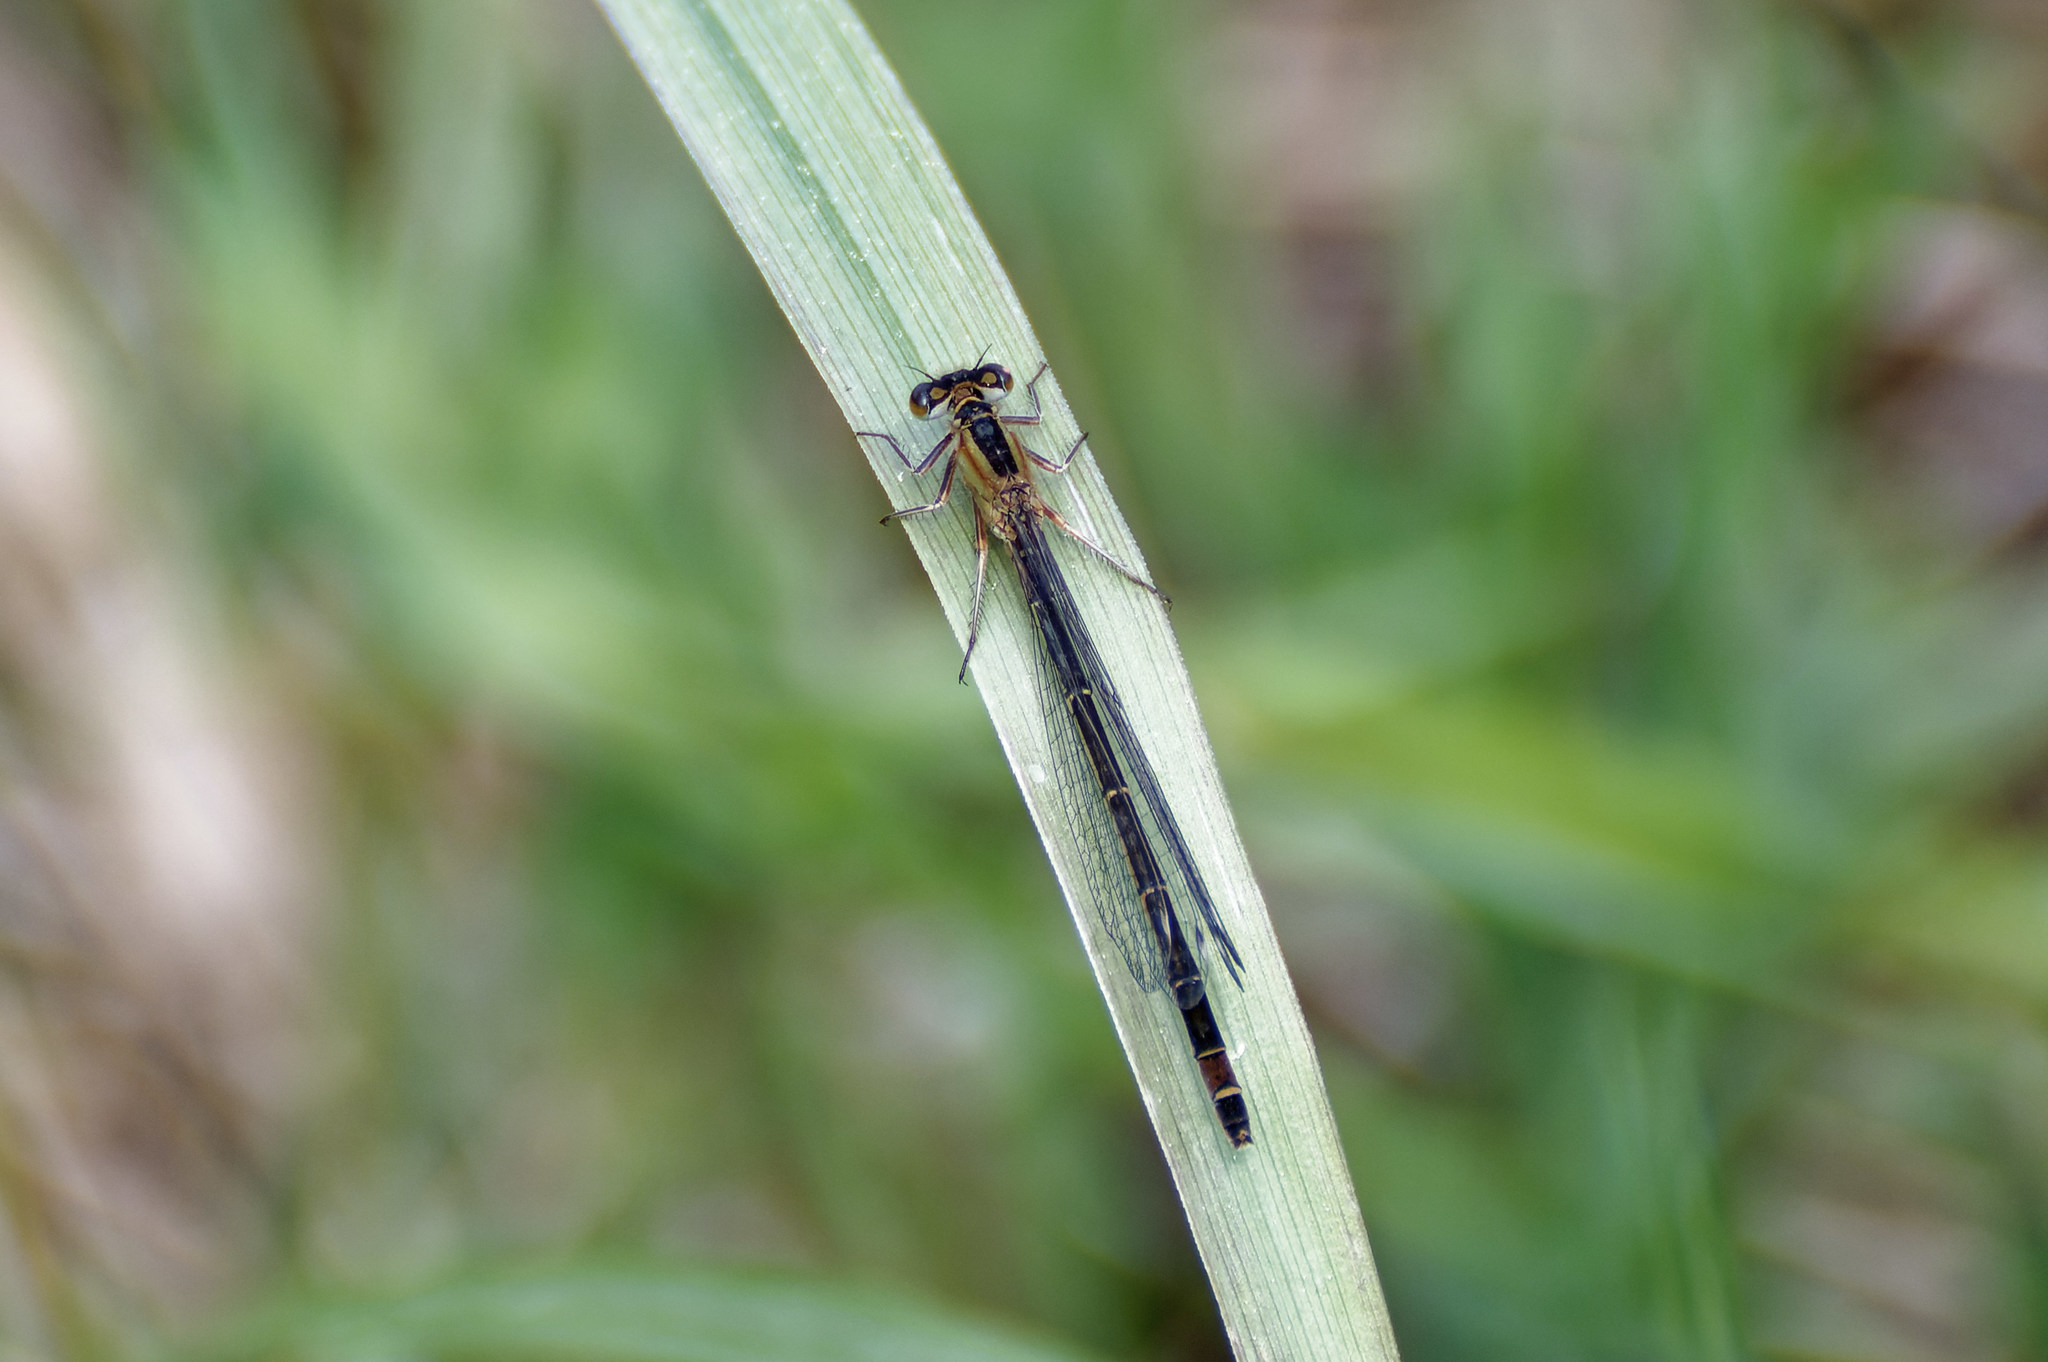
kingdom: Animalia
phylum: Arthropoda
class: Insecta
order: Odonata
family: Coenagrionidae
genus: Ischnura
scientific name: Ischnura elegans
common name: Blue-tailed damselfly
